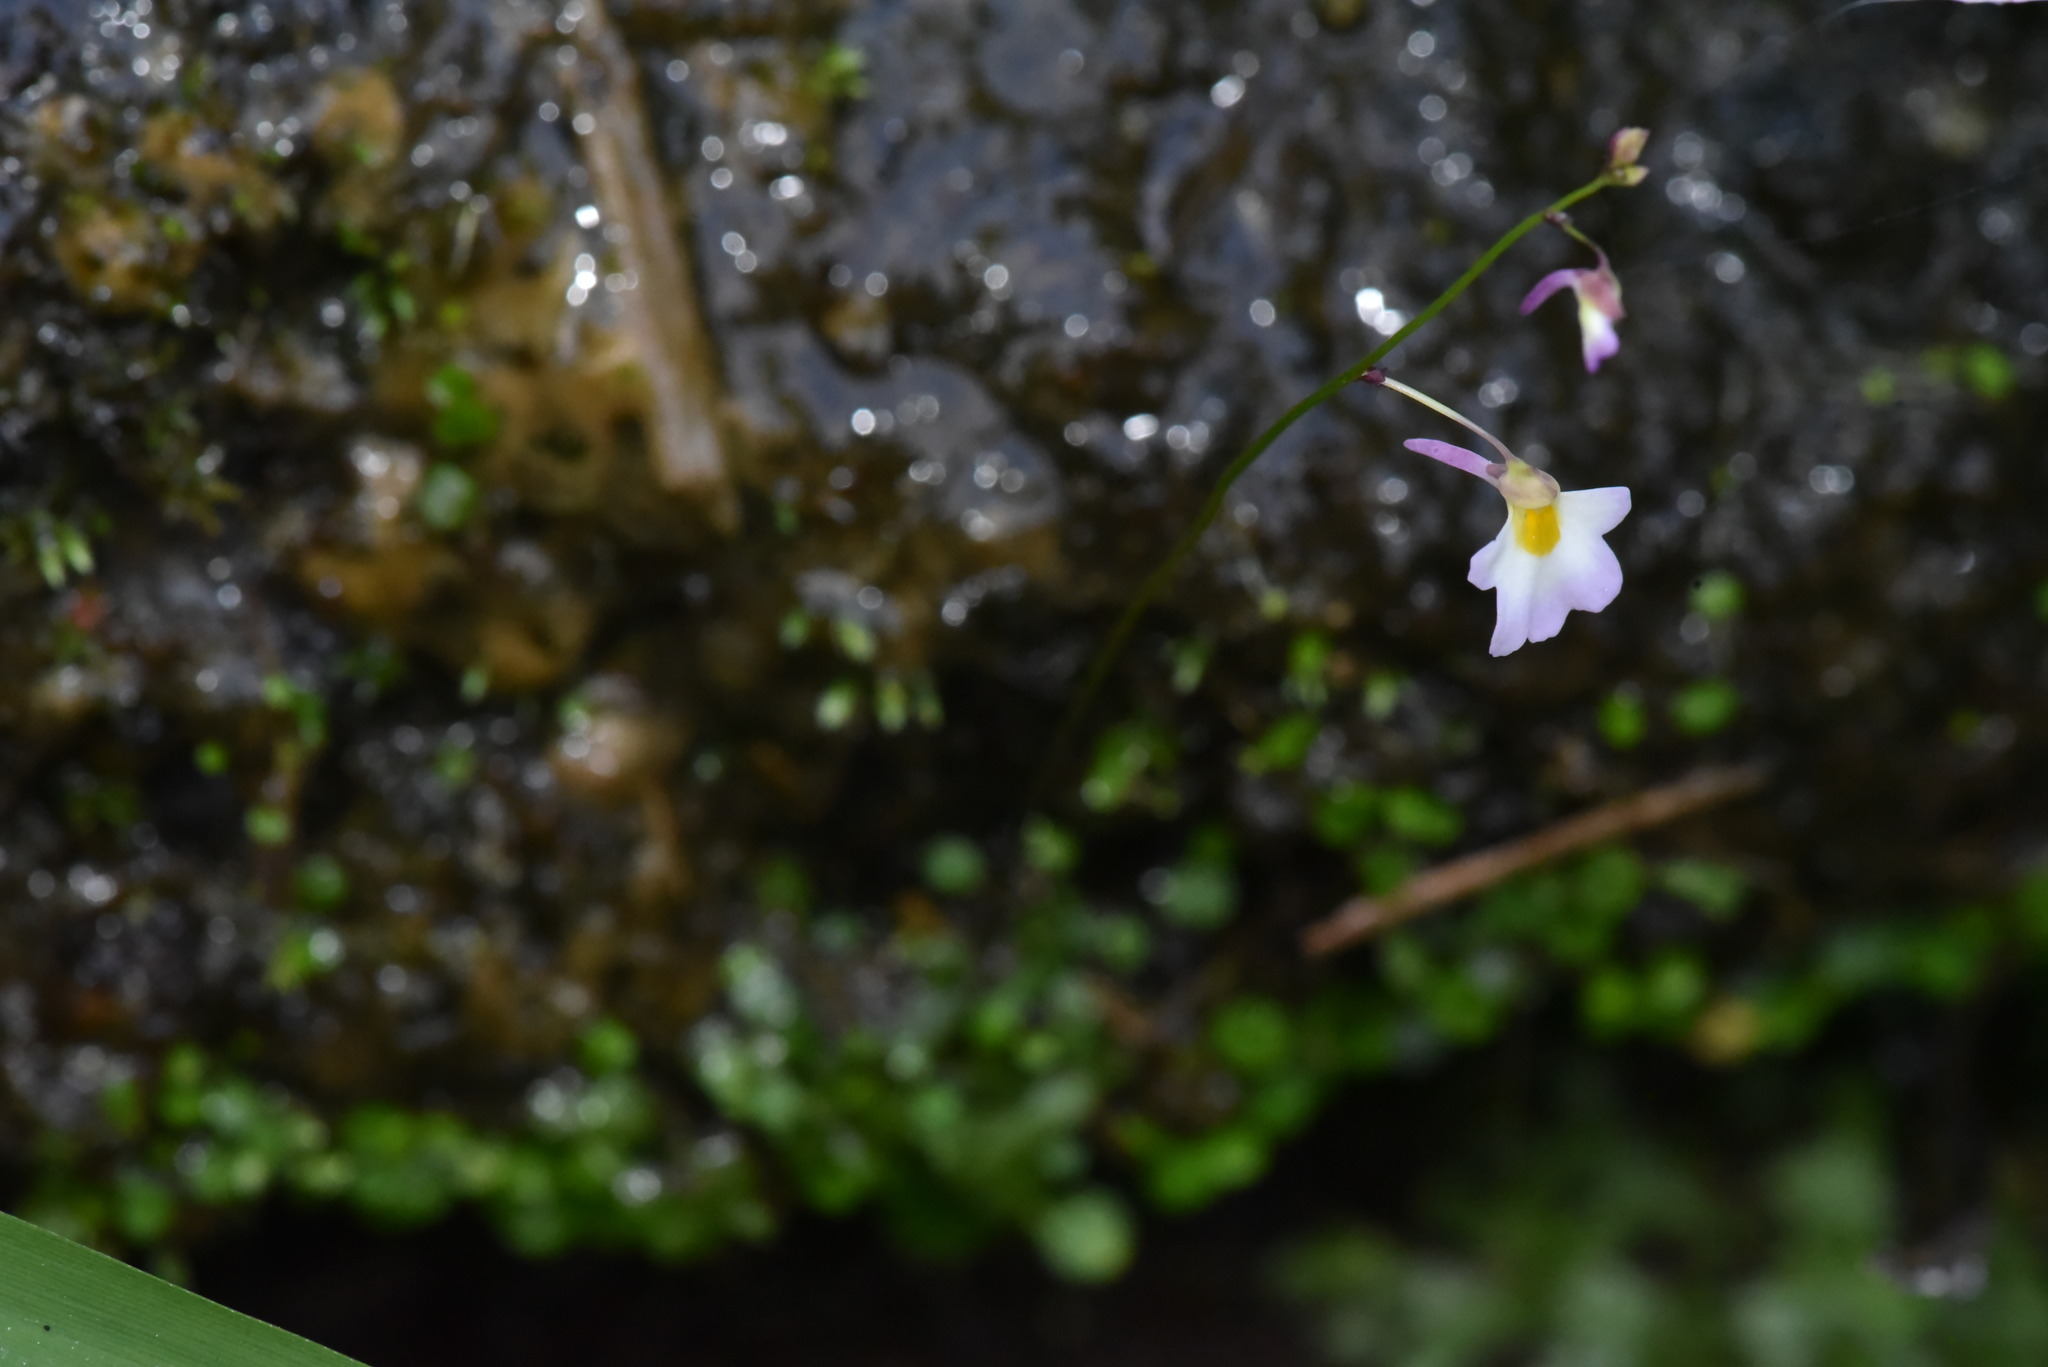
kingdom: Plantae
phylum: Tracheophyta
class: Magnoliopsida
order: Lamiales
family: Lentibulariaceae
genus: Utricularia
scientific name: Utricularia striatula
